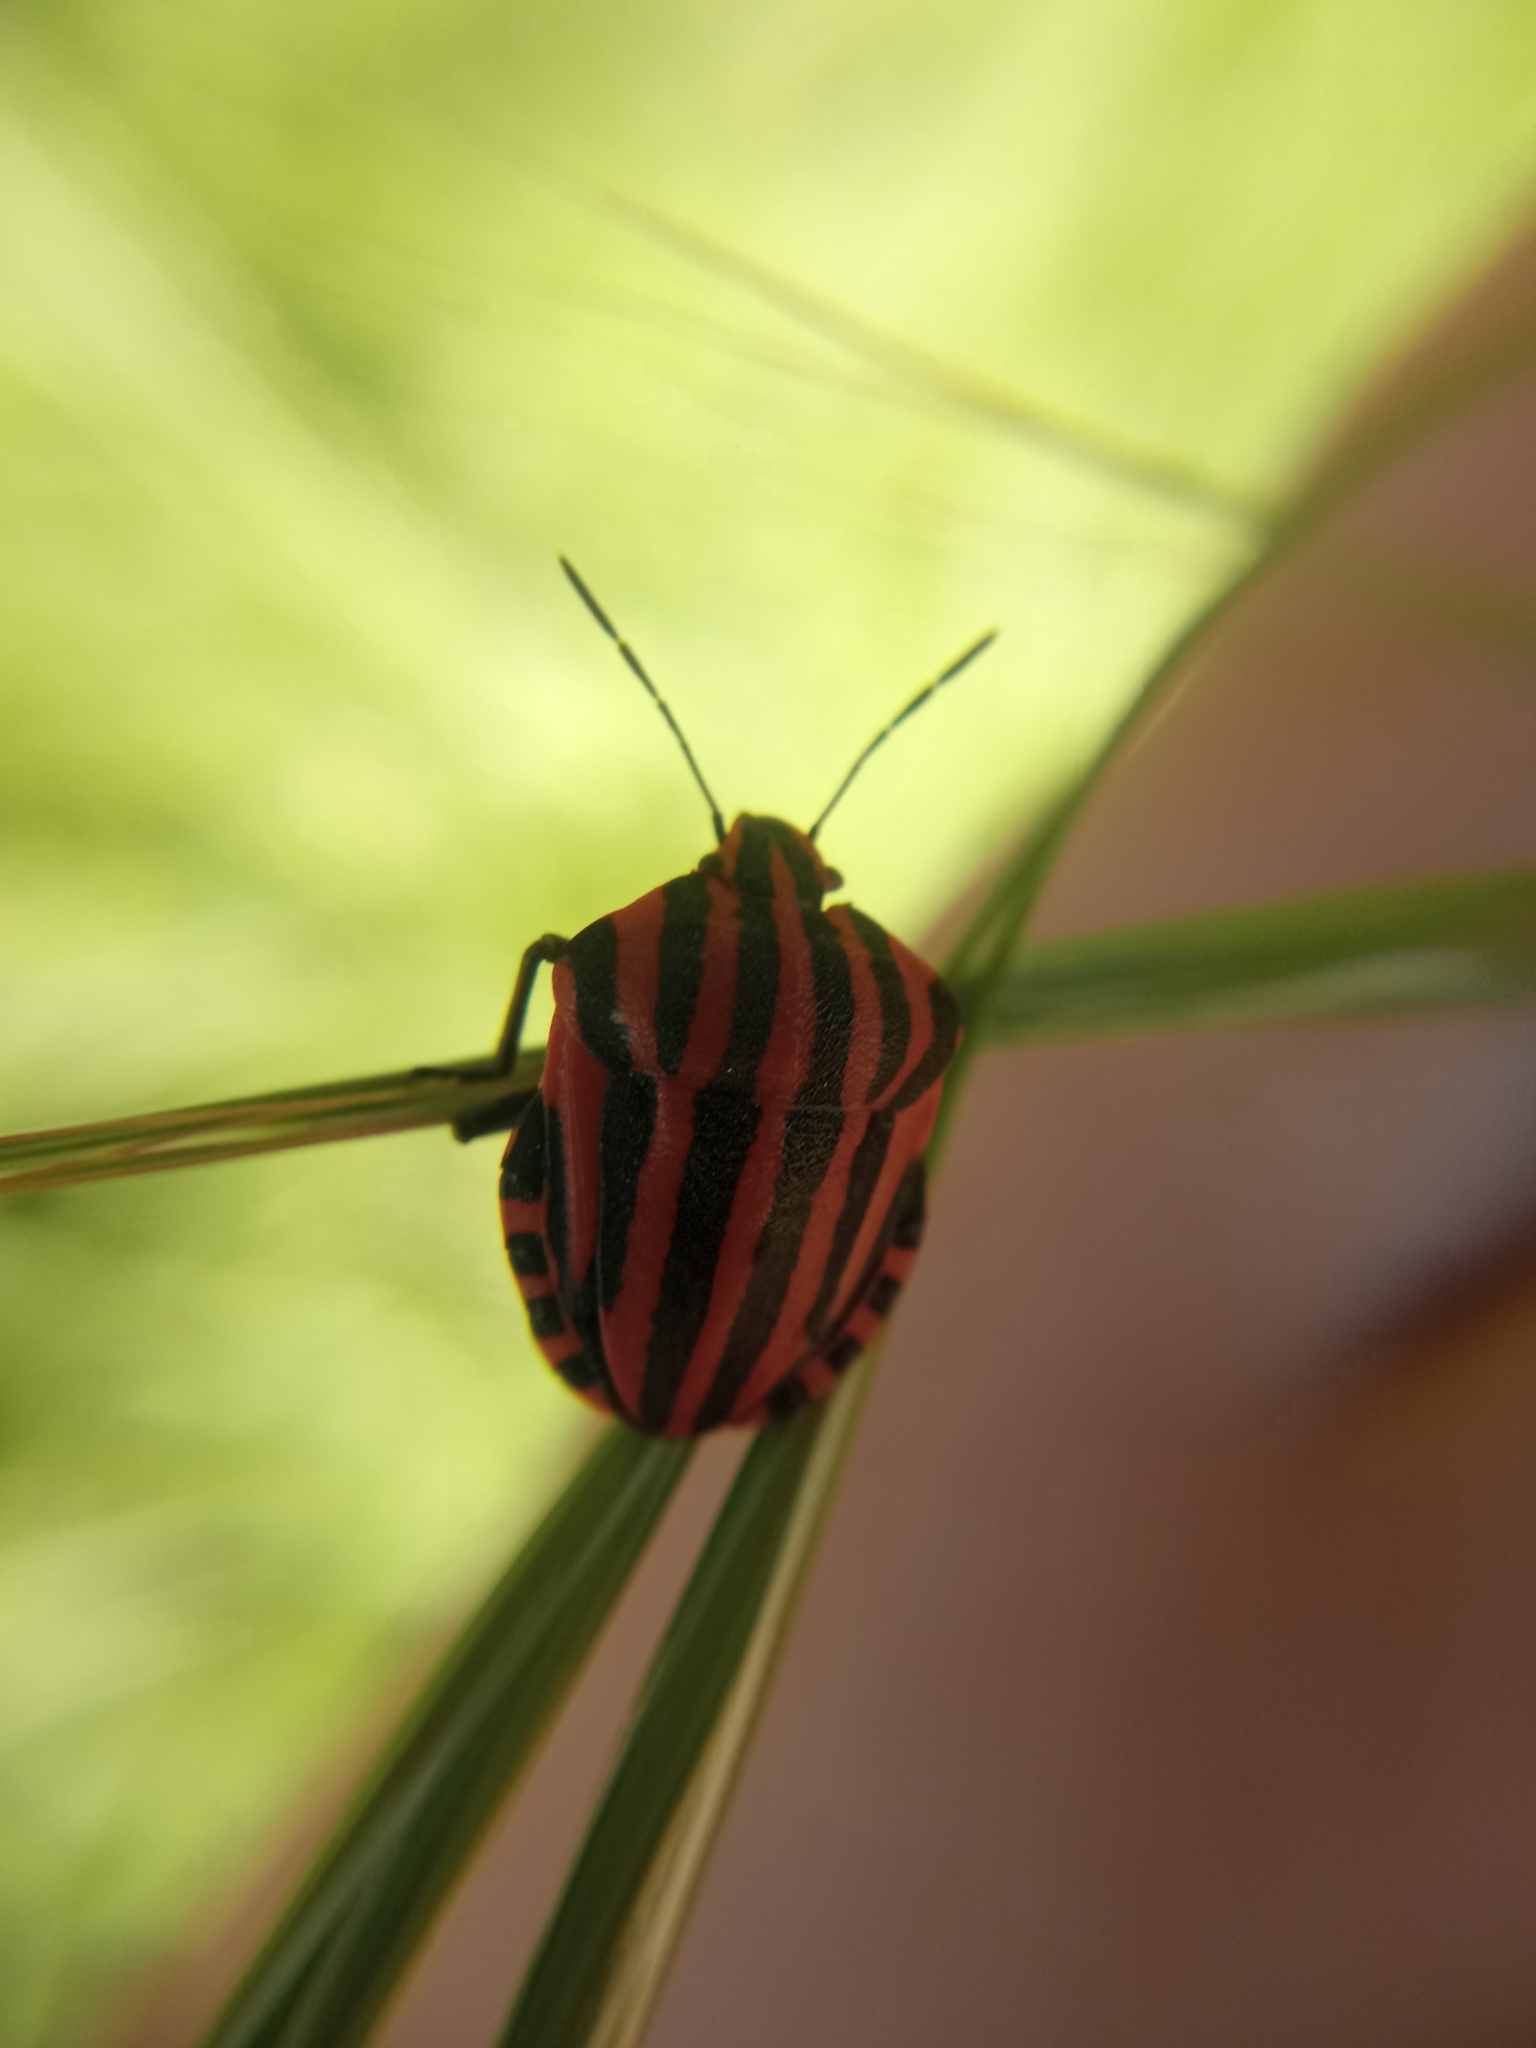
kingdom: Animalia
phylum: Arthropoda
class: Insecta
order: Hemiptera
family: Pentatomidae
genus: Graphosoma
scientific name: Graphosoma italicum
